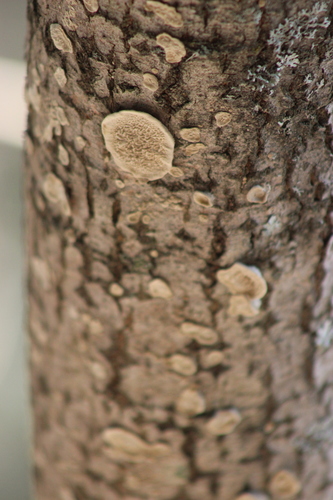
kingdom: Fungi
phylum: Basidiomycota
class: Agaricomycetes
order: Polyporales
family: Cerrenaceae
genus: Cerrena
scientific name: Cerrena unicolor
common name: Mossy maze polypore
